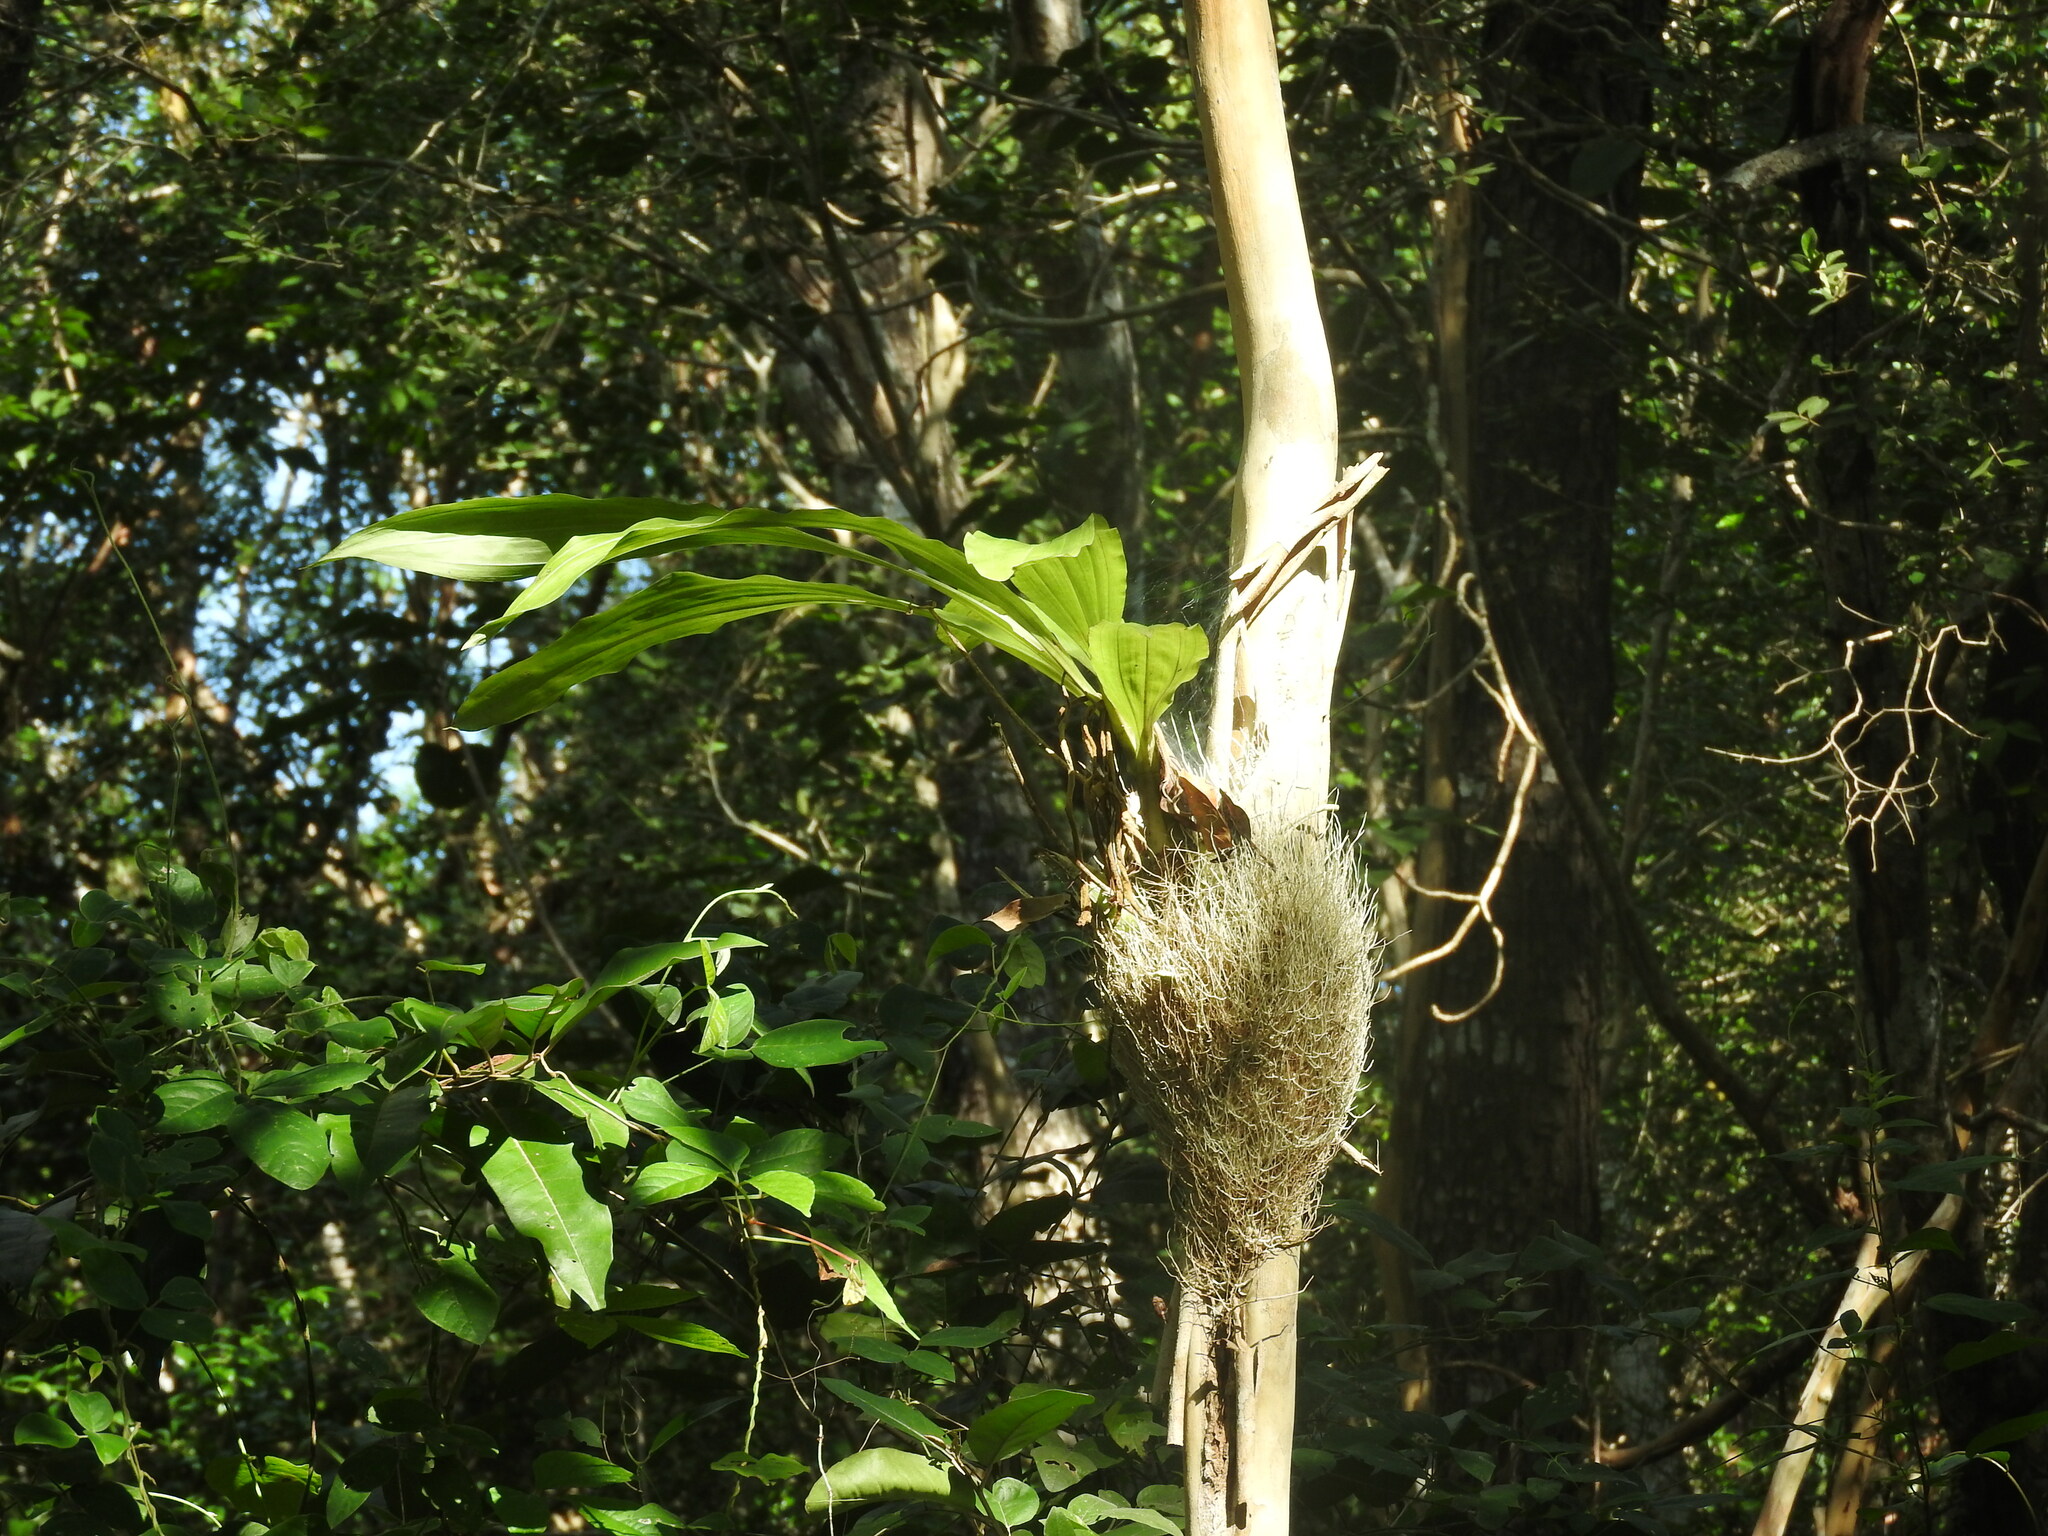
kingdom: Plantae
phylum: Tracheophyta
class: Liliopsida
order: Asparagales
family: Orchidaceae
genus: Catasetum
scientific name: Catasetum integerrimum
